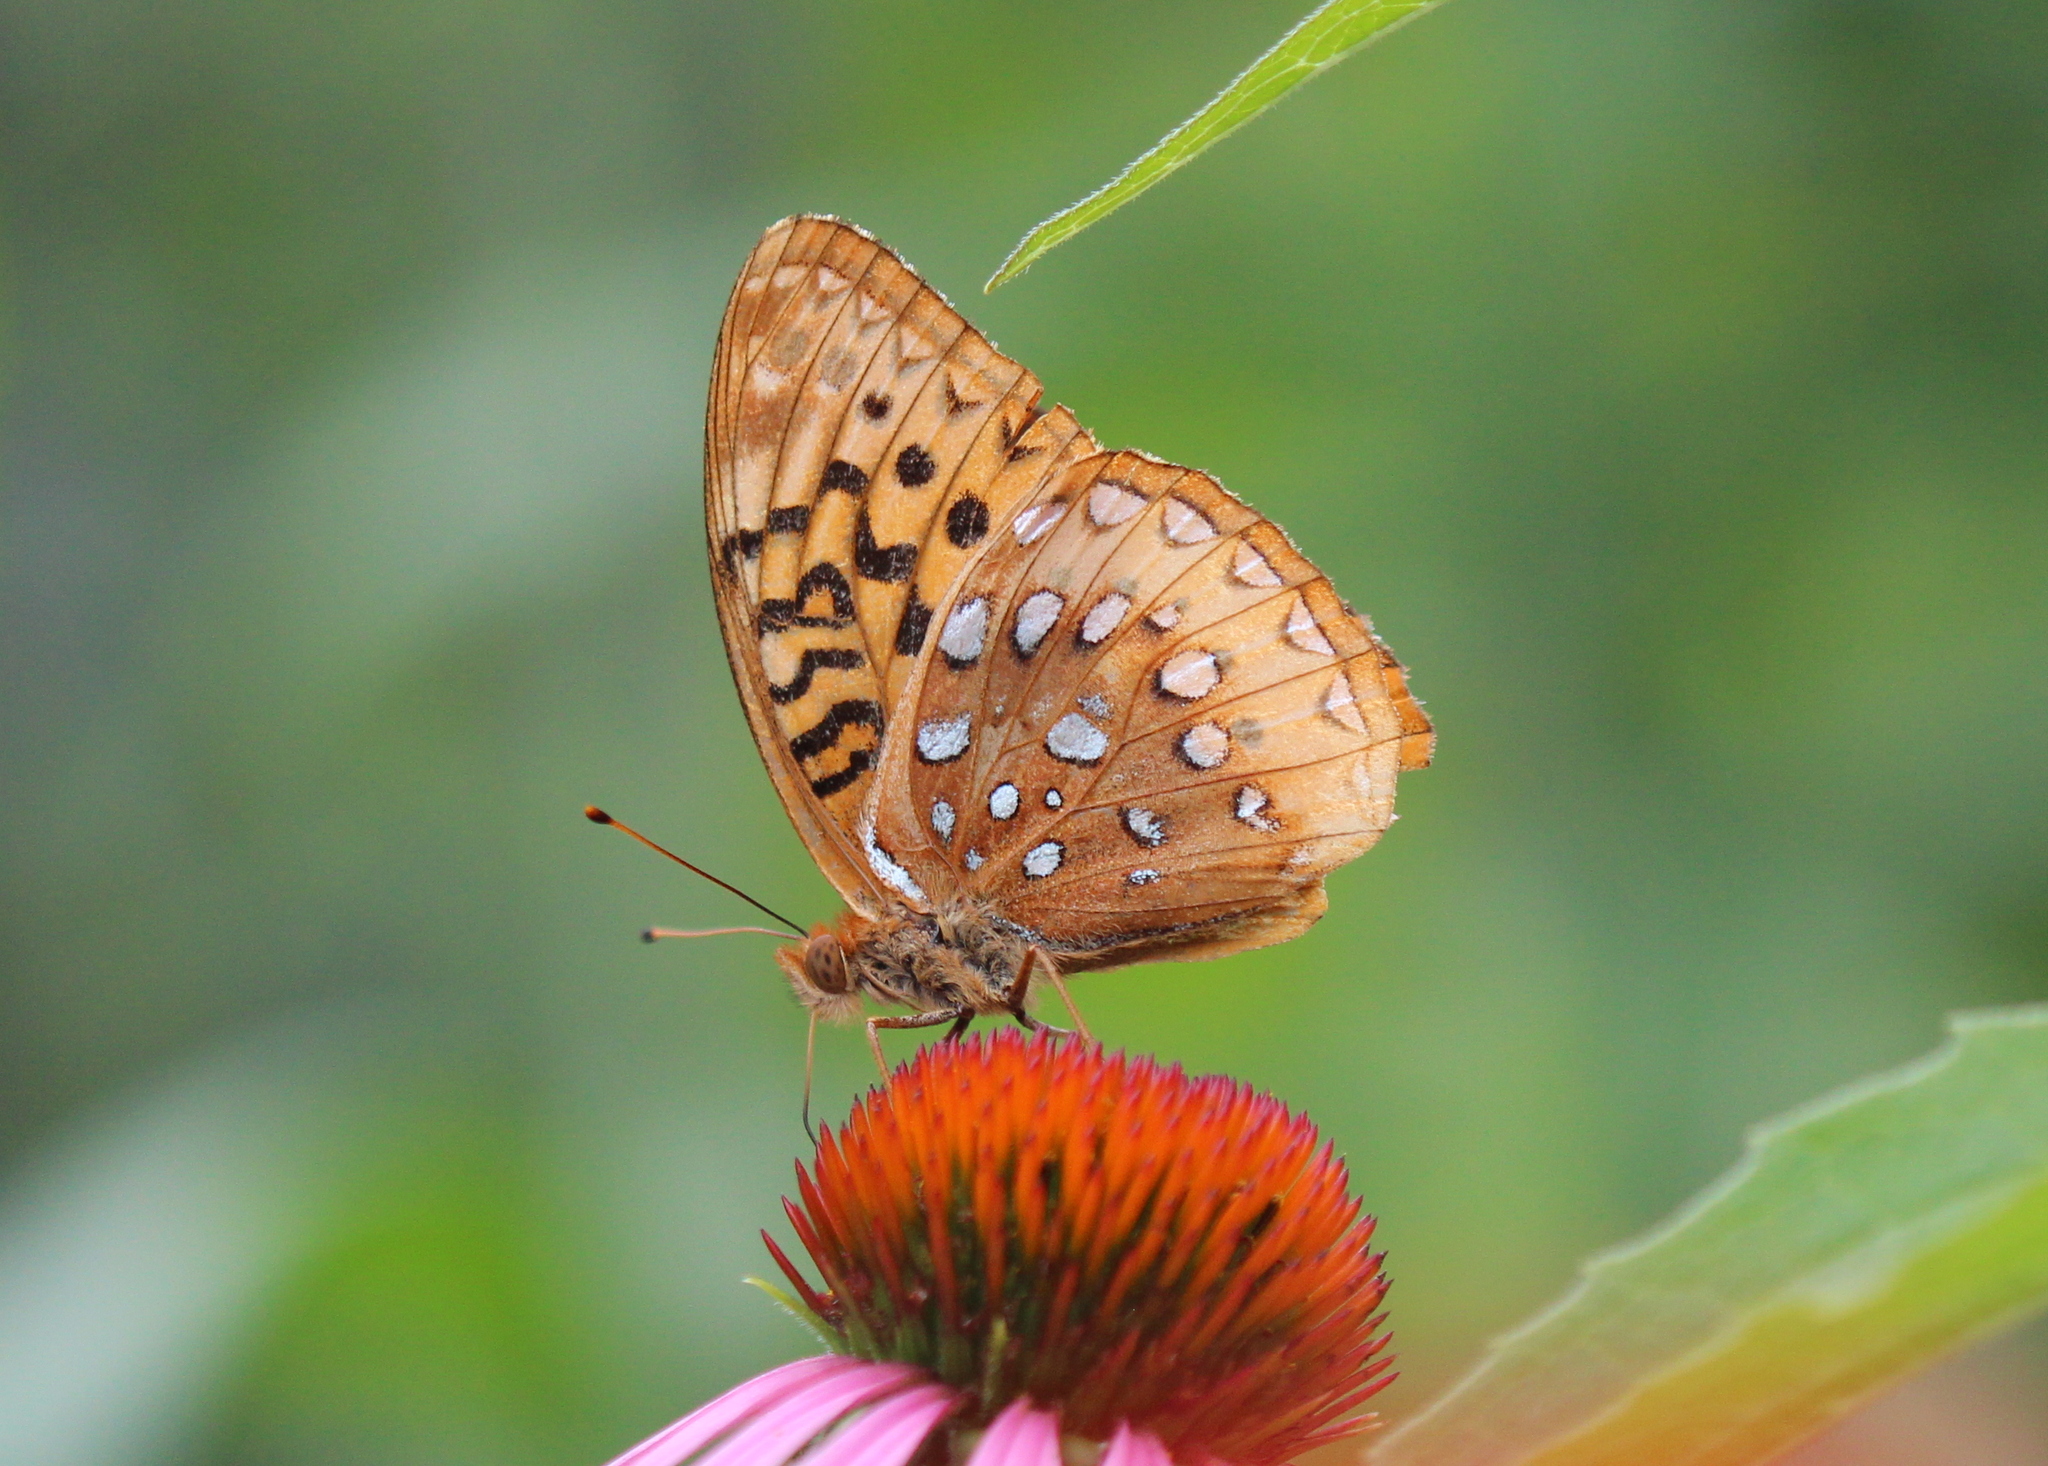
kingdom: Animalia
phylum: Arthropoda
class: Insecta
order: Lepidoptera
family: Nymphalidae
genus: Speyeria
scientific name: Speyeria cybele
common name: Great spangled fritillary
